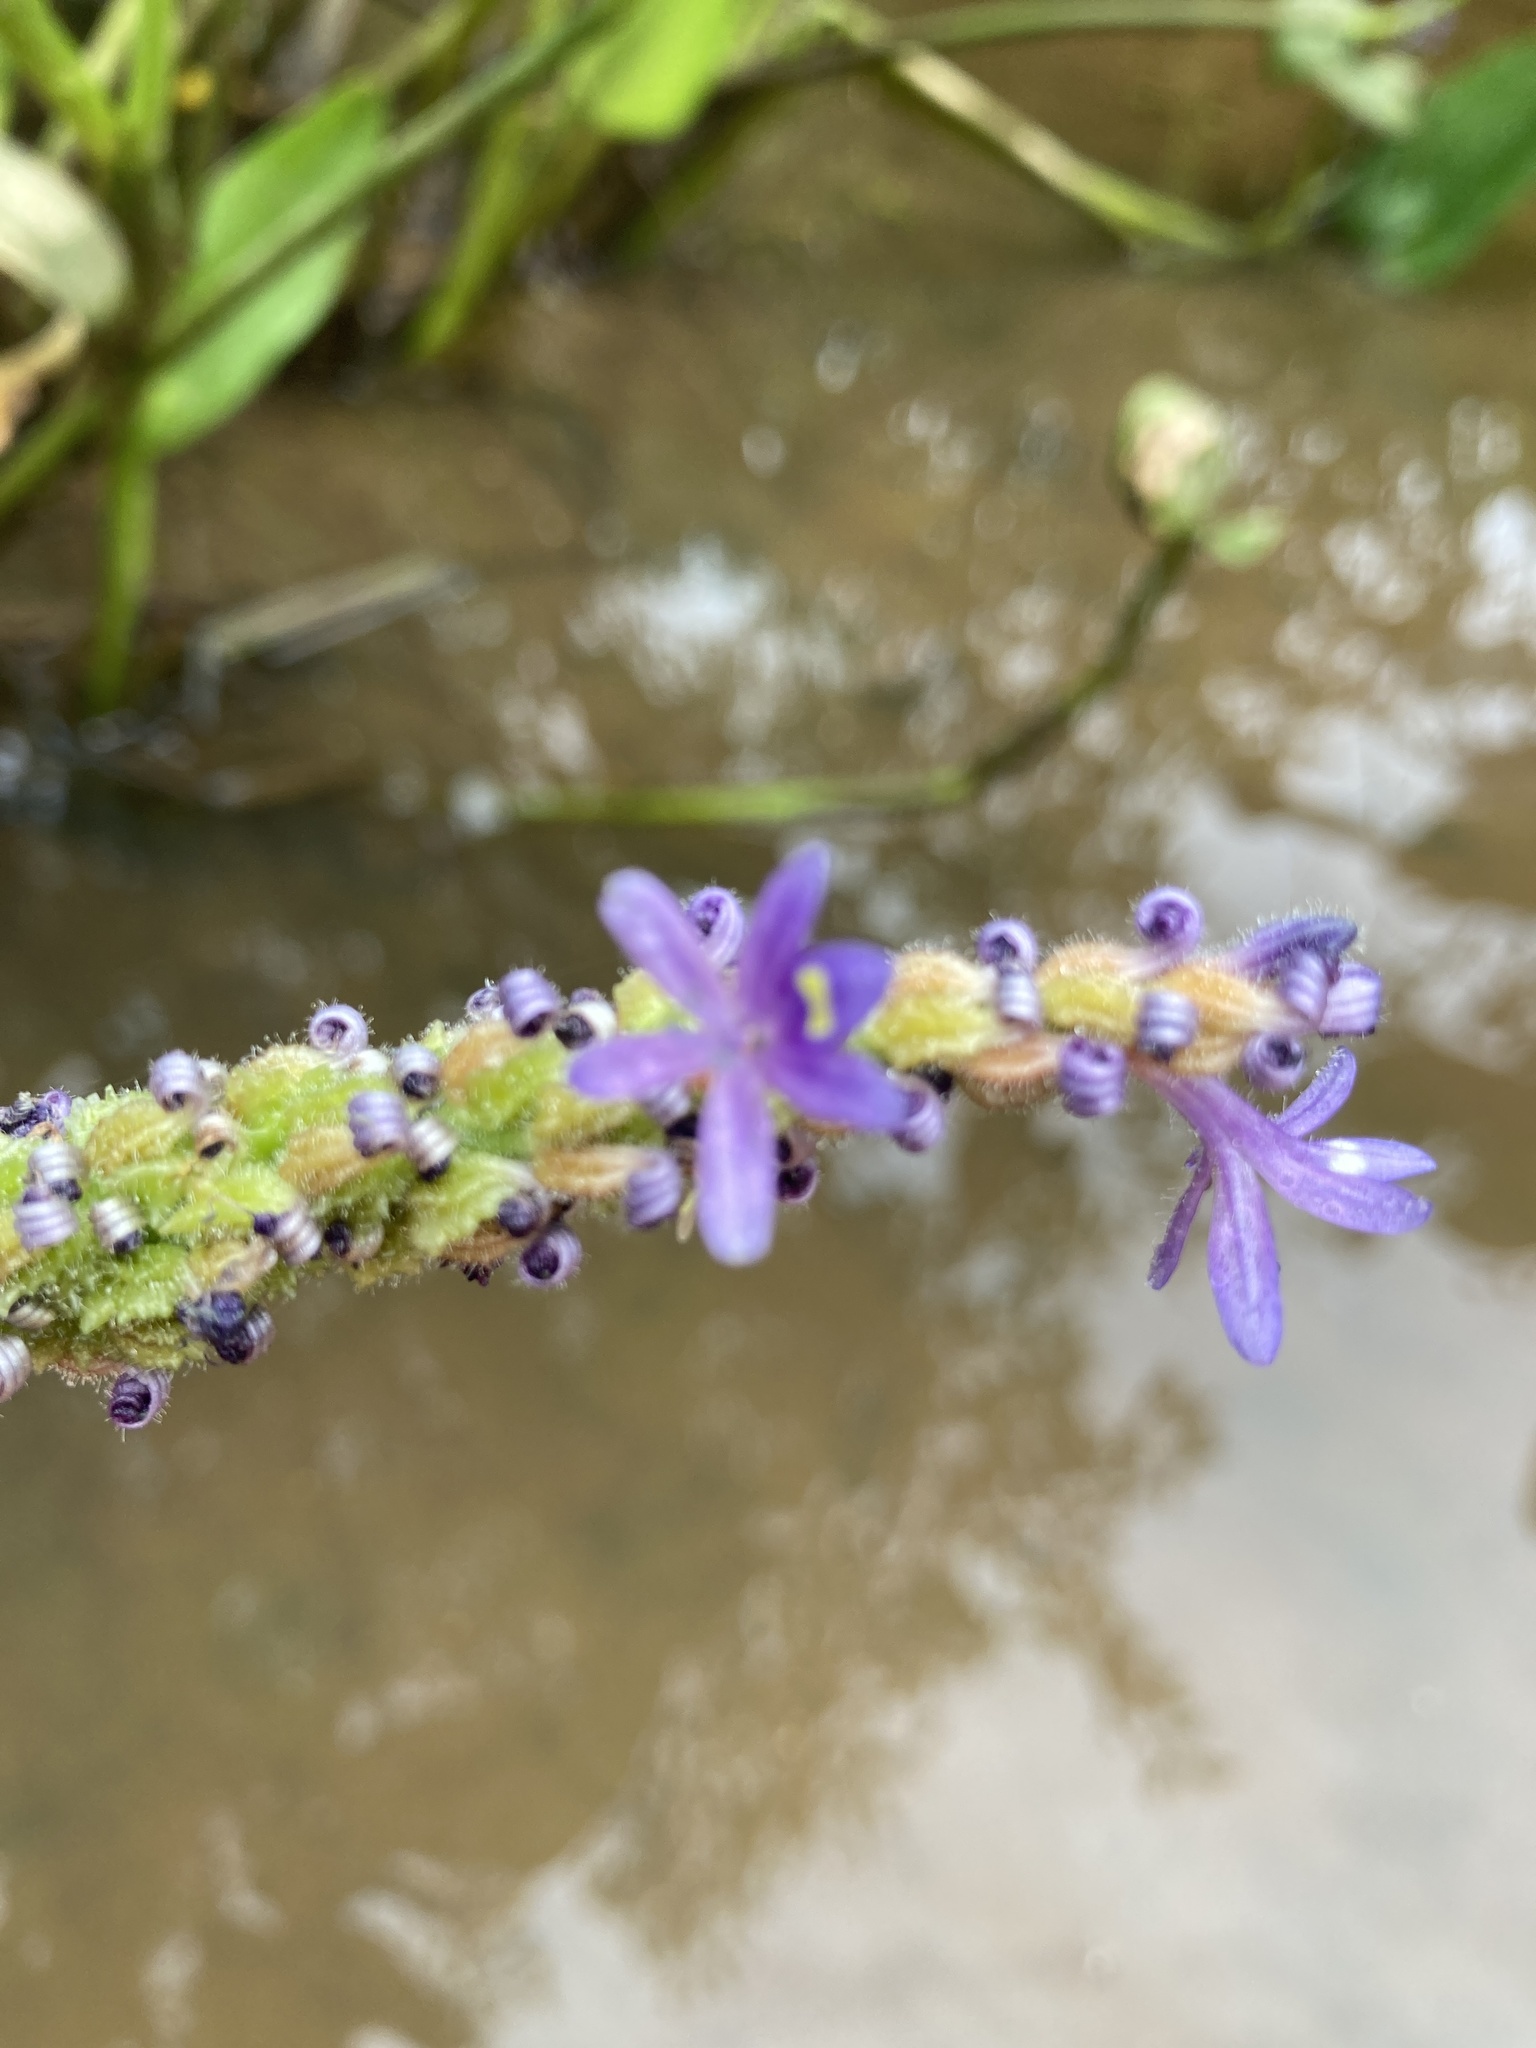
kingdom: Plantae
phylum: Tracheophyta
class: Liliopsida
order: Commelinales
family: Pontederiaceae
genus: Pontederia
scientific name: Pontederia cordata
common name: Pickerelweed
